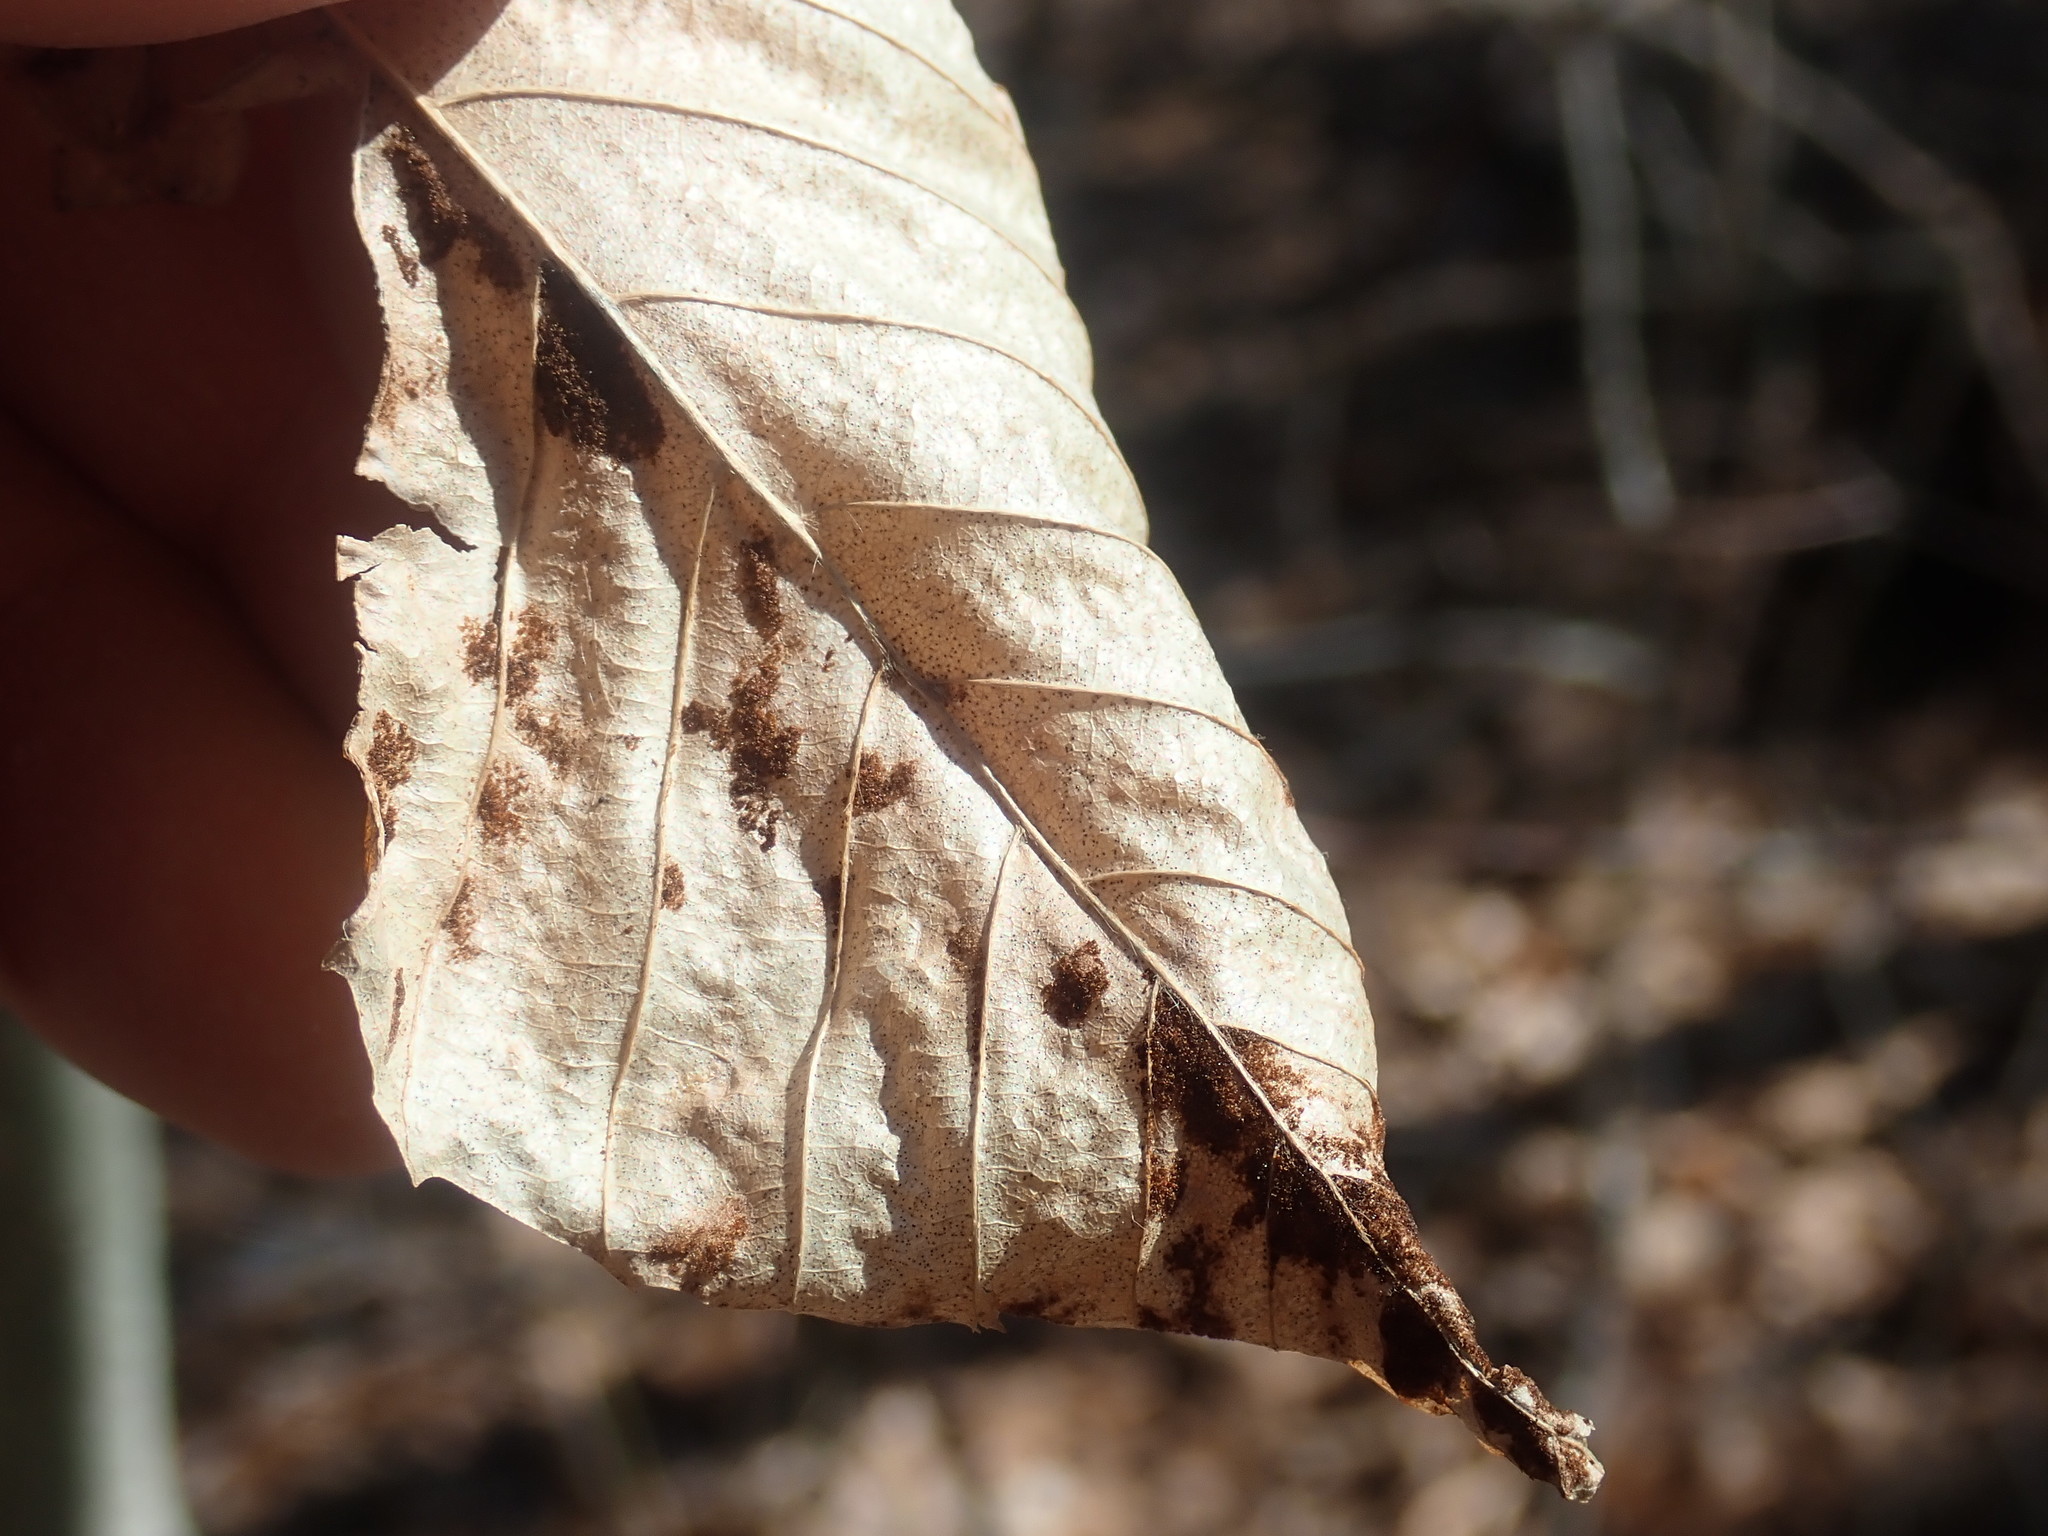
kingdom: Animalia
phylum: Arthropoda
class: Arachnida
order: Trombidiformes
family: Eriophyidae
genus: Acalitus
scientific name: Acalitus
